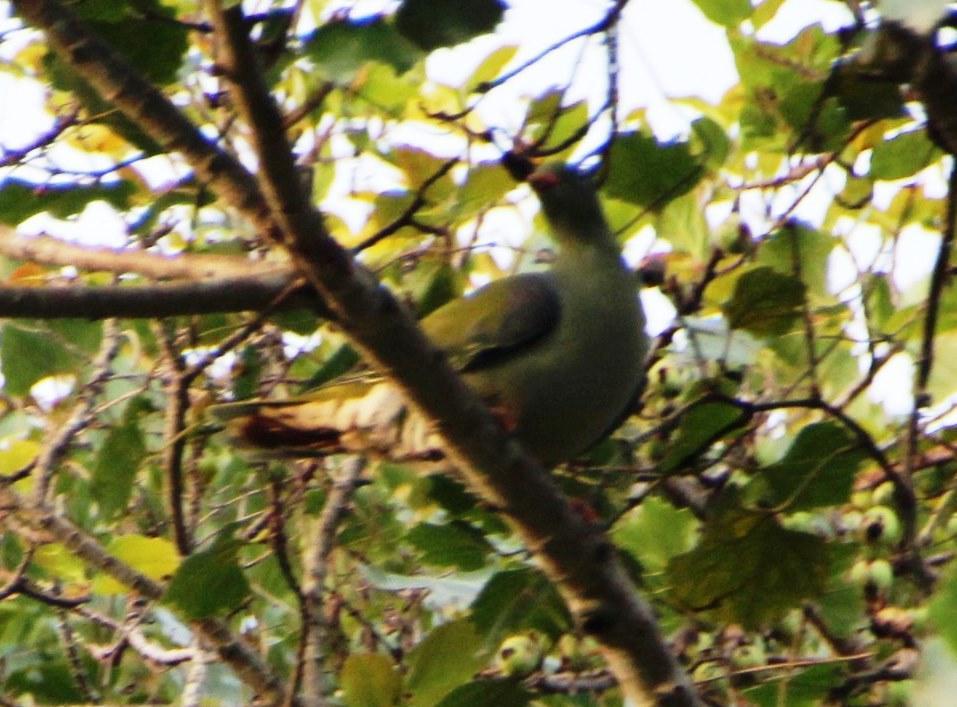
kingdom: Animalia
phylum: Chordata
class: Aves
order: Columbiformes
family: Columbidae
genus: Treron
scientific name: Treron calvus
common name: African green pigeon
